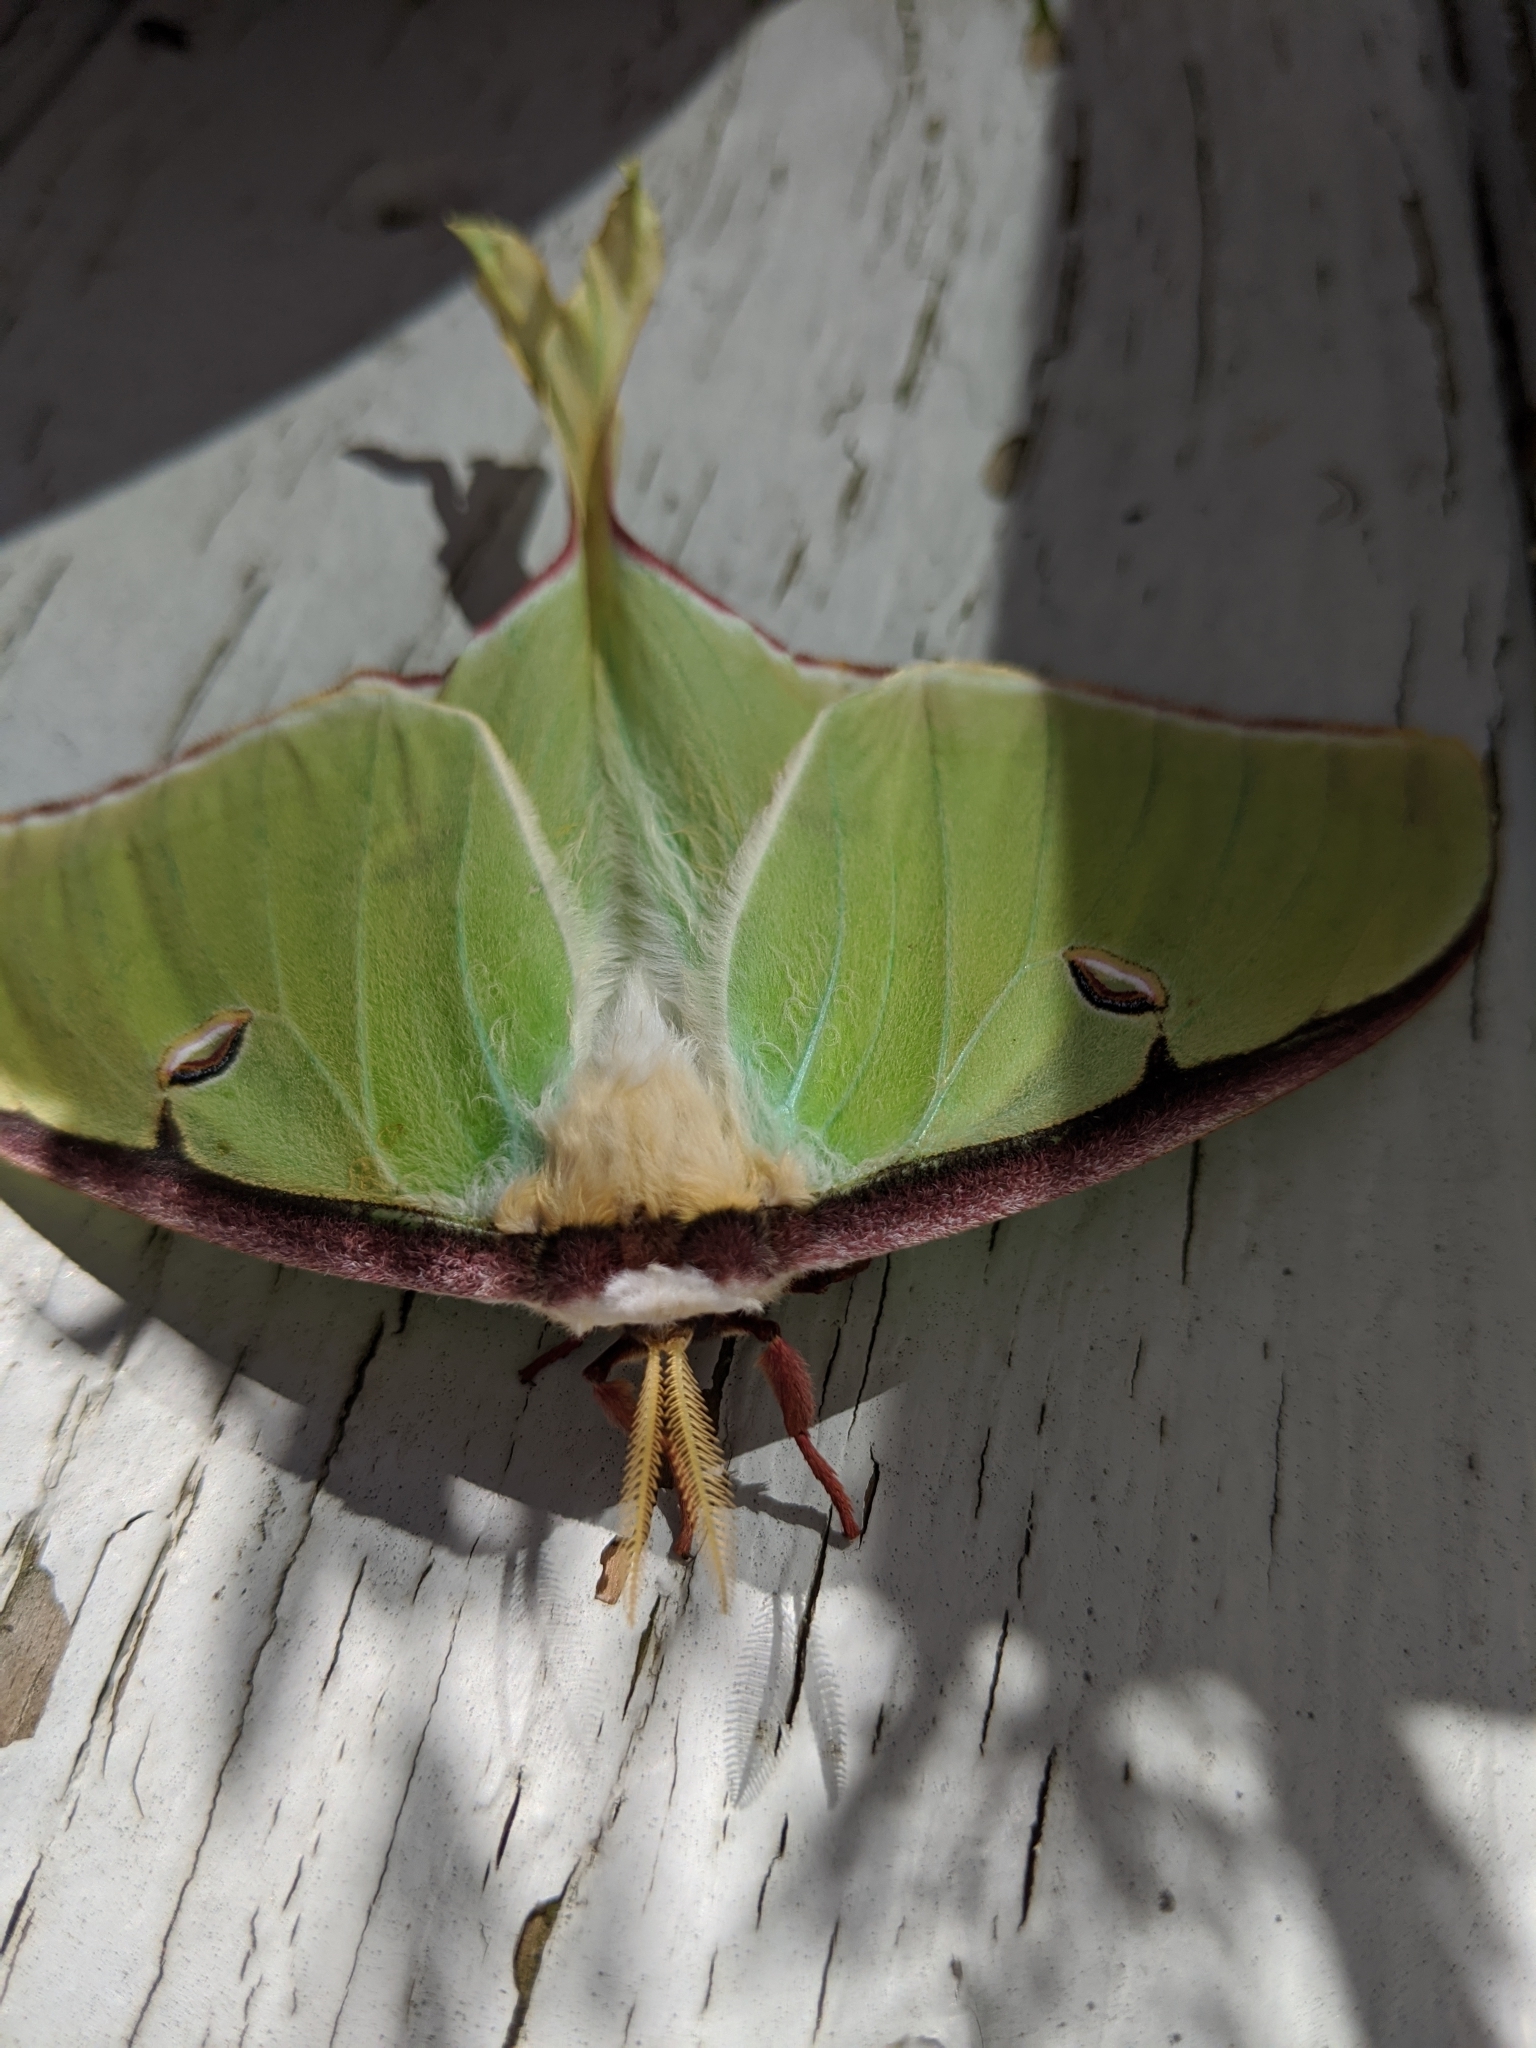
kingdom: Animalia
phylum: Arthropoda
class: Insecta
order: Lepidoptera
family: Saturniidae
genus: Actias
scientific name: Actias luna
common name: Luna moth
